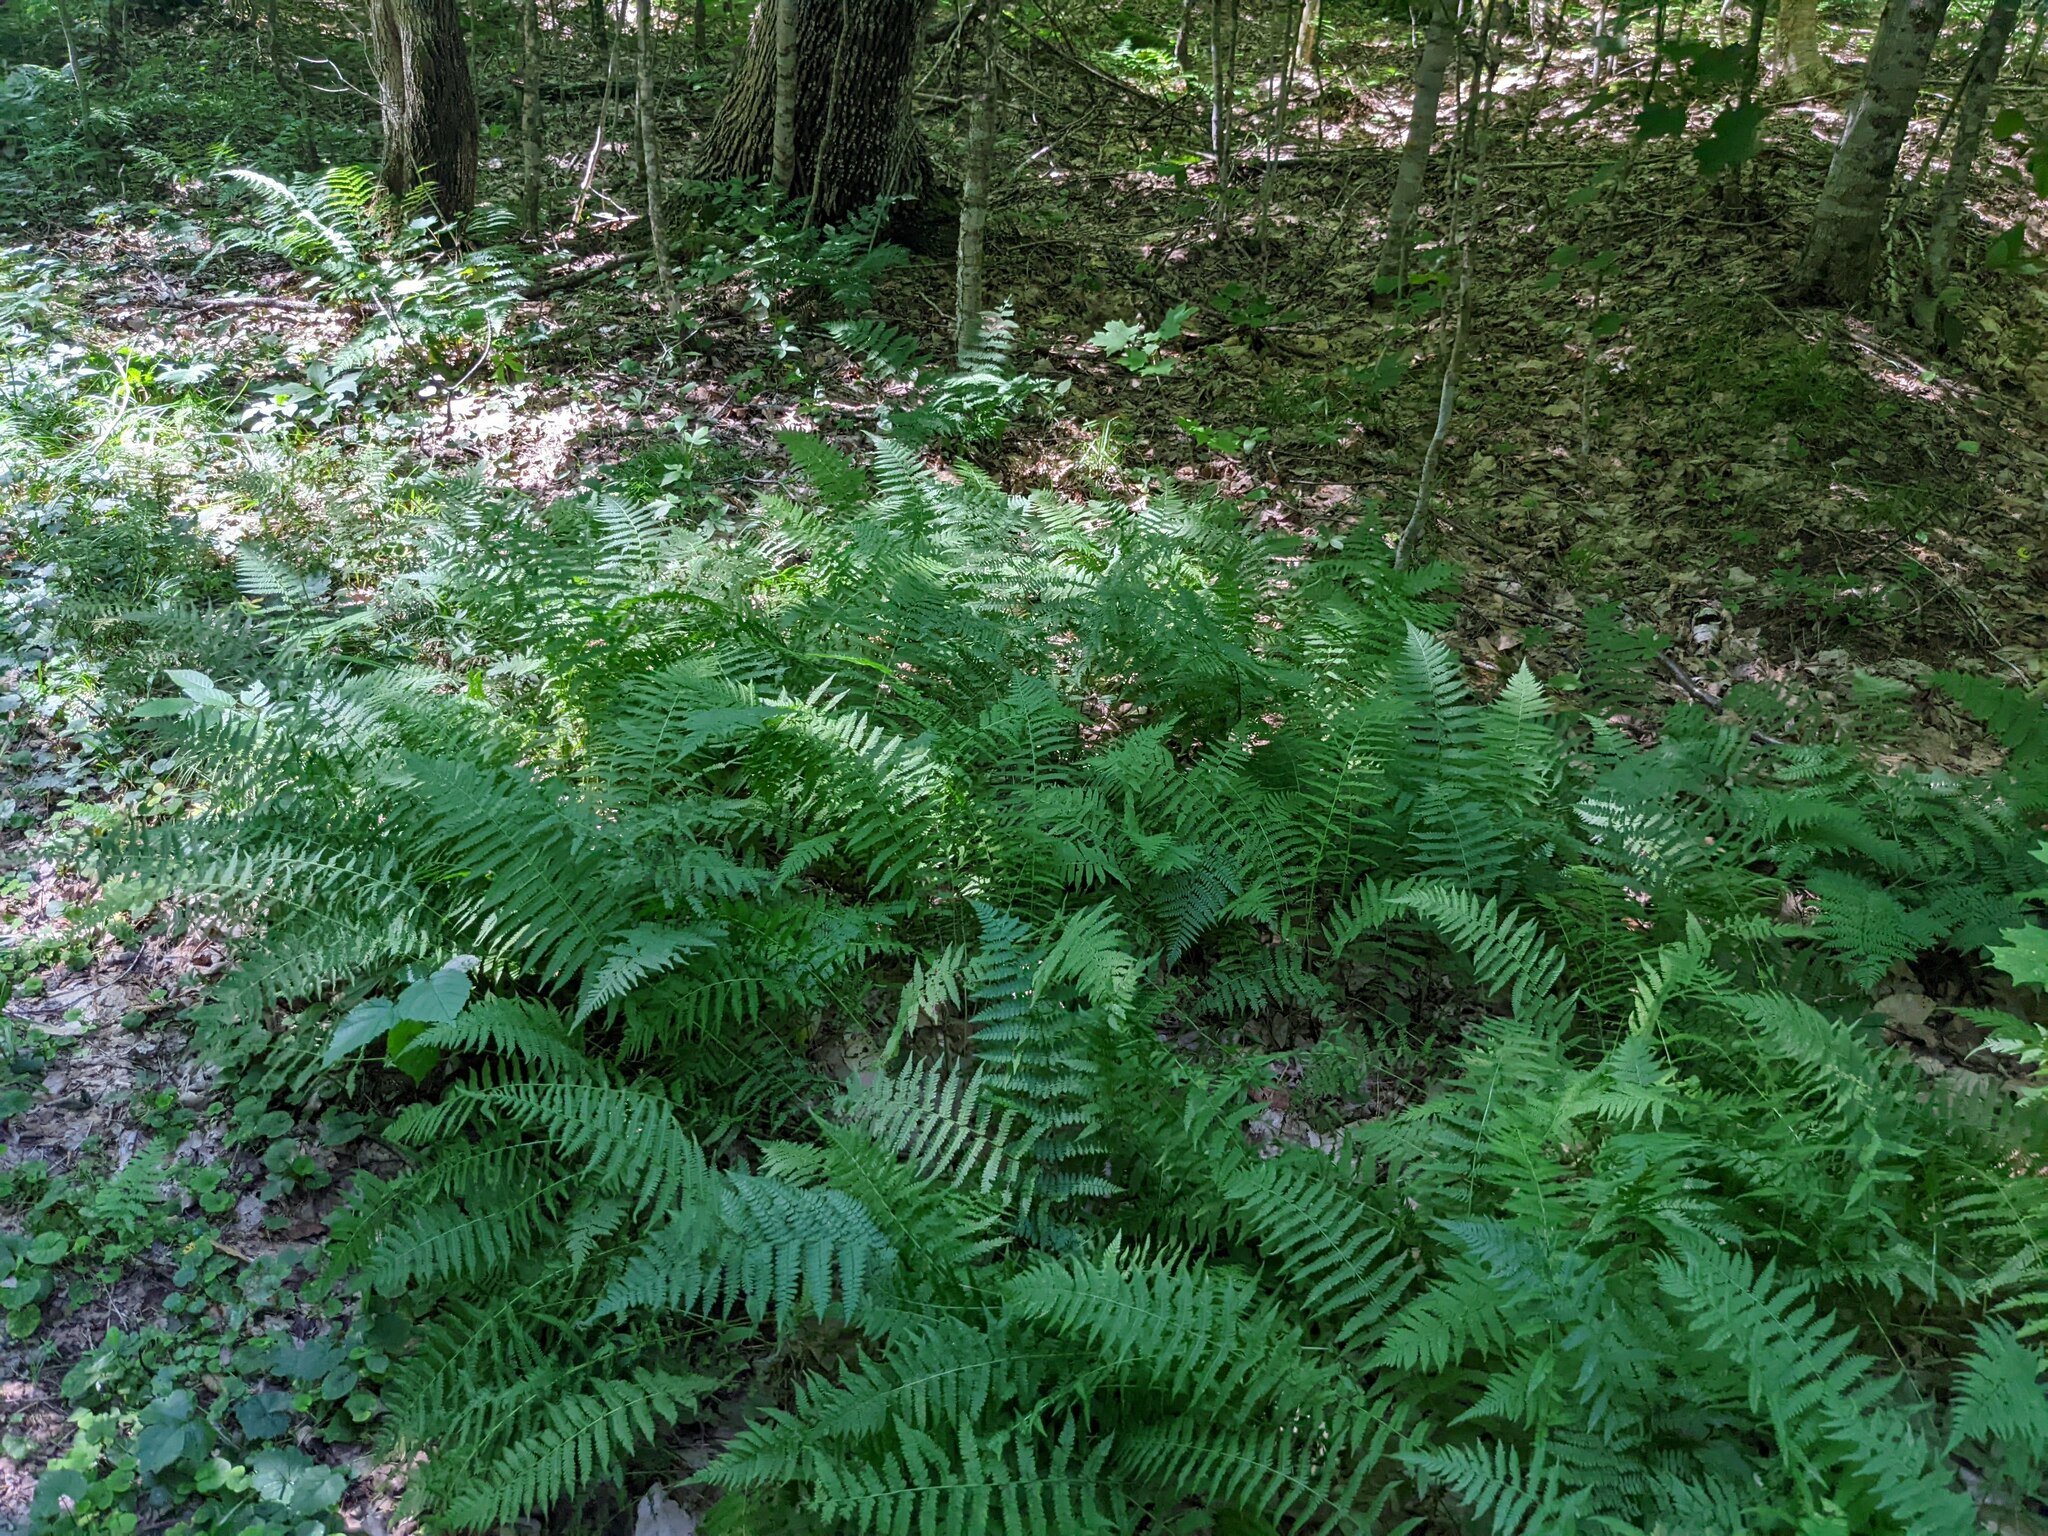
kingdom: Plantae
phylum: Tracheophyta
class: Polypodiopsida
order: Polypodiales
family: Thelypteridaceae
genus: Amauropelta
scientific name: Amauropelta noveboracensis
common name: New york fern
